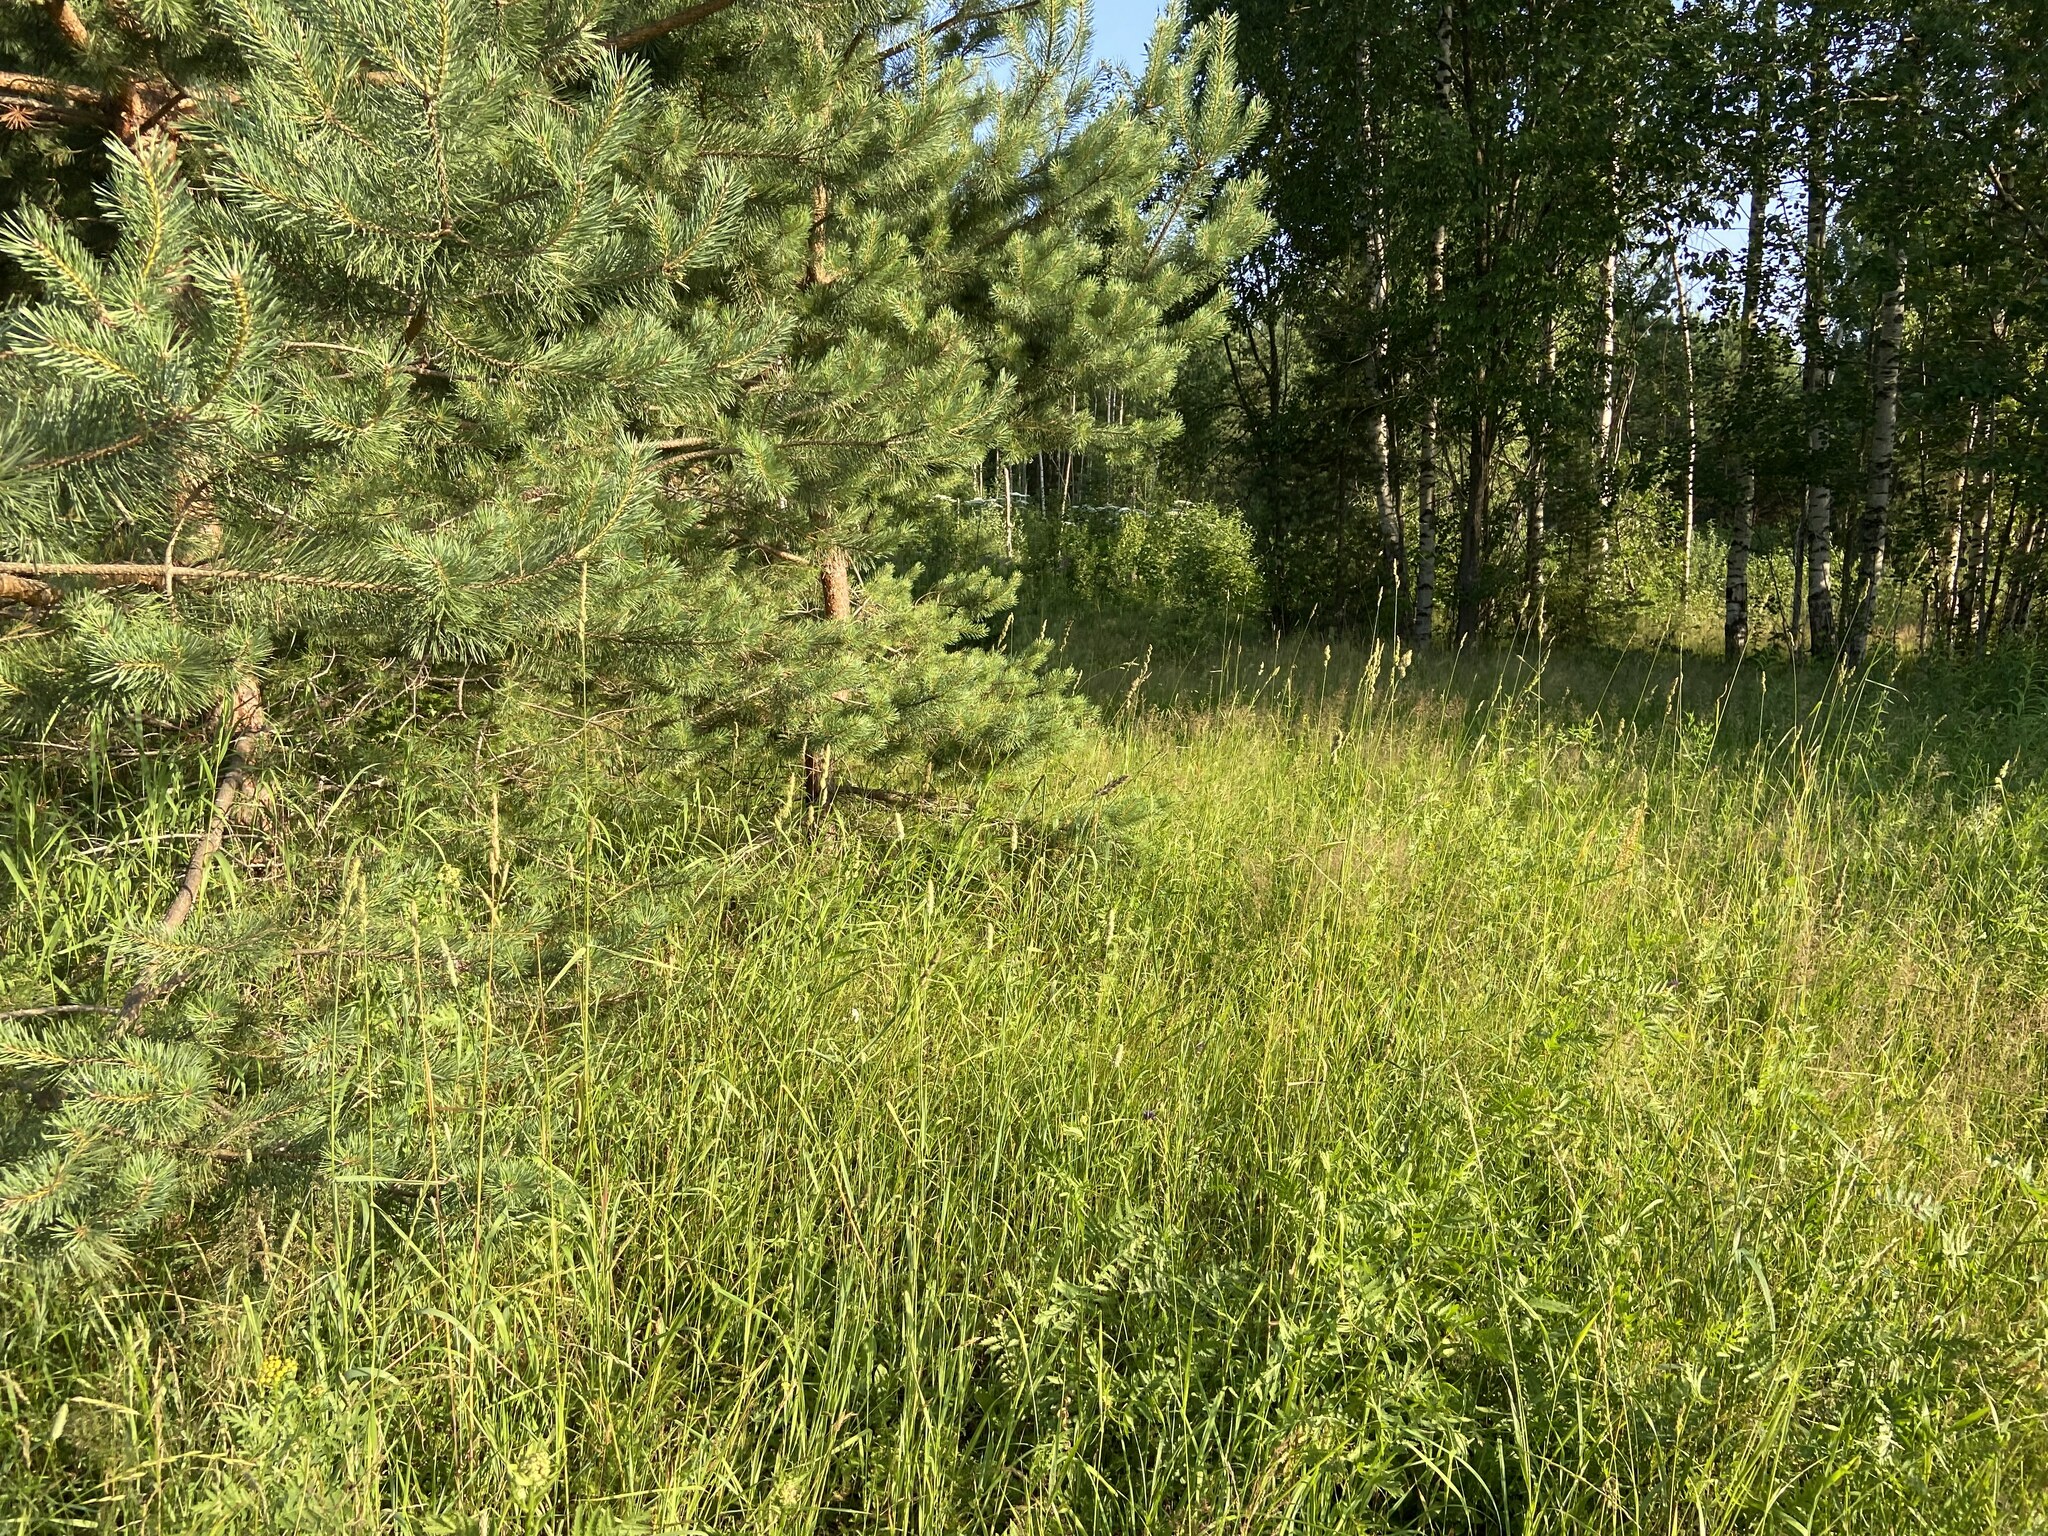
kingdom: Plantae
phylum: Tracheophyta
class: Pinopsida
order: Pinales
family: Pinaceae
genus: Pinus
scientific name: Pinus sylvestris
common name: Scots pine
